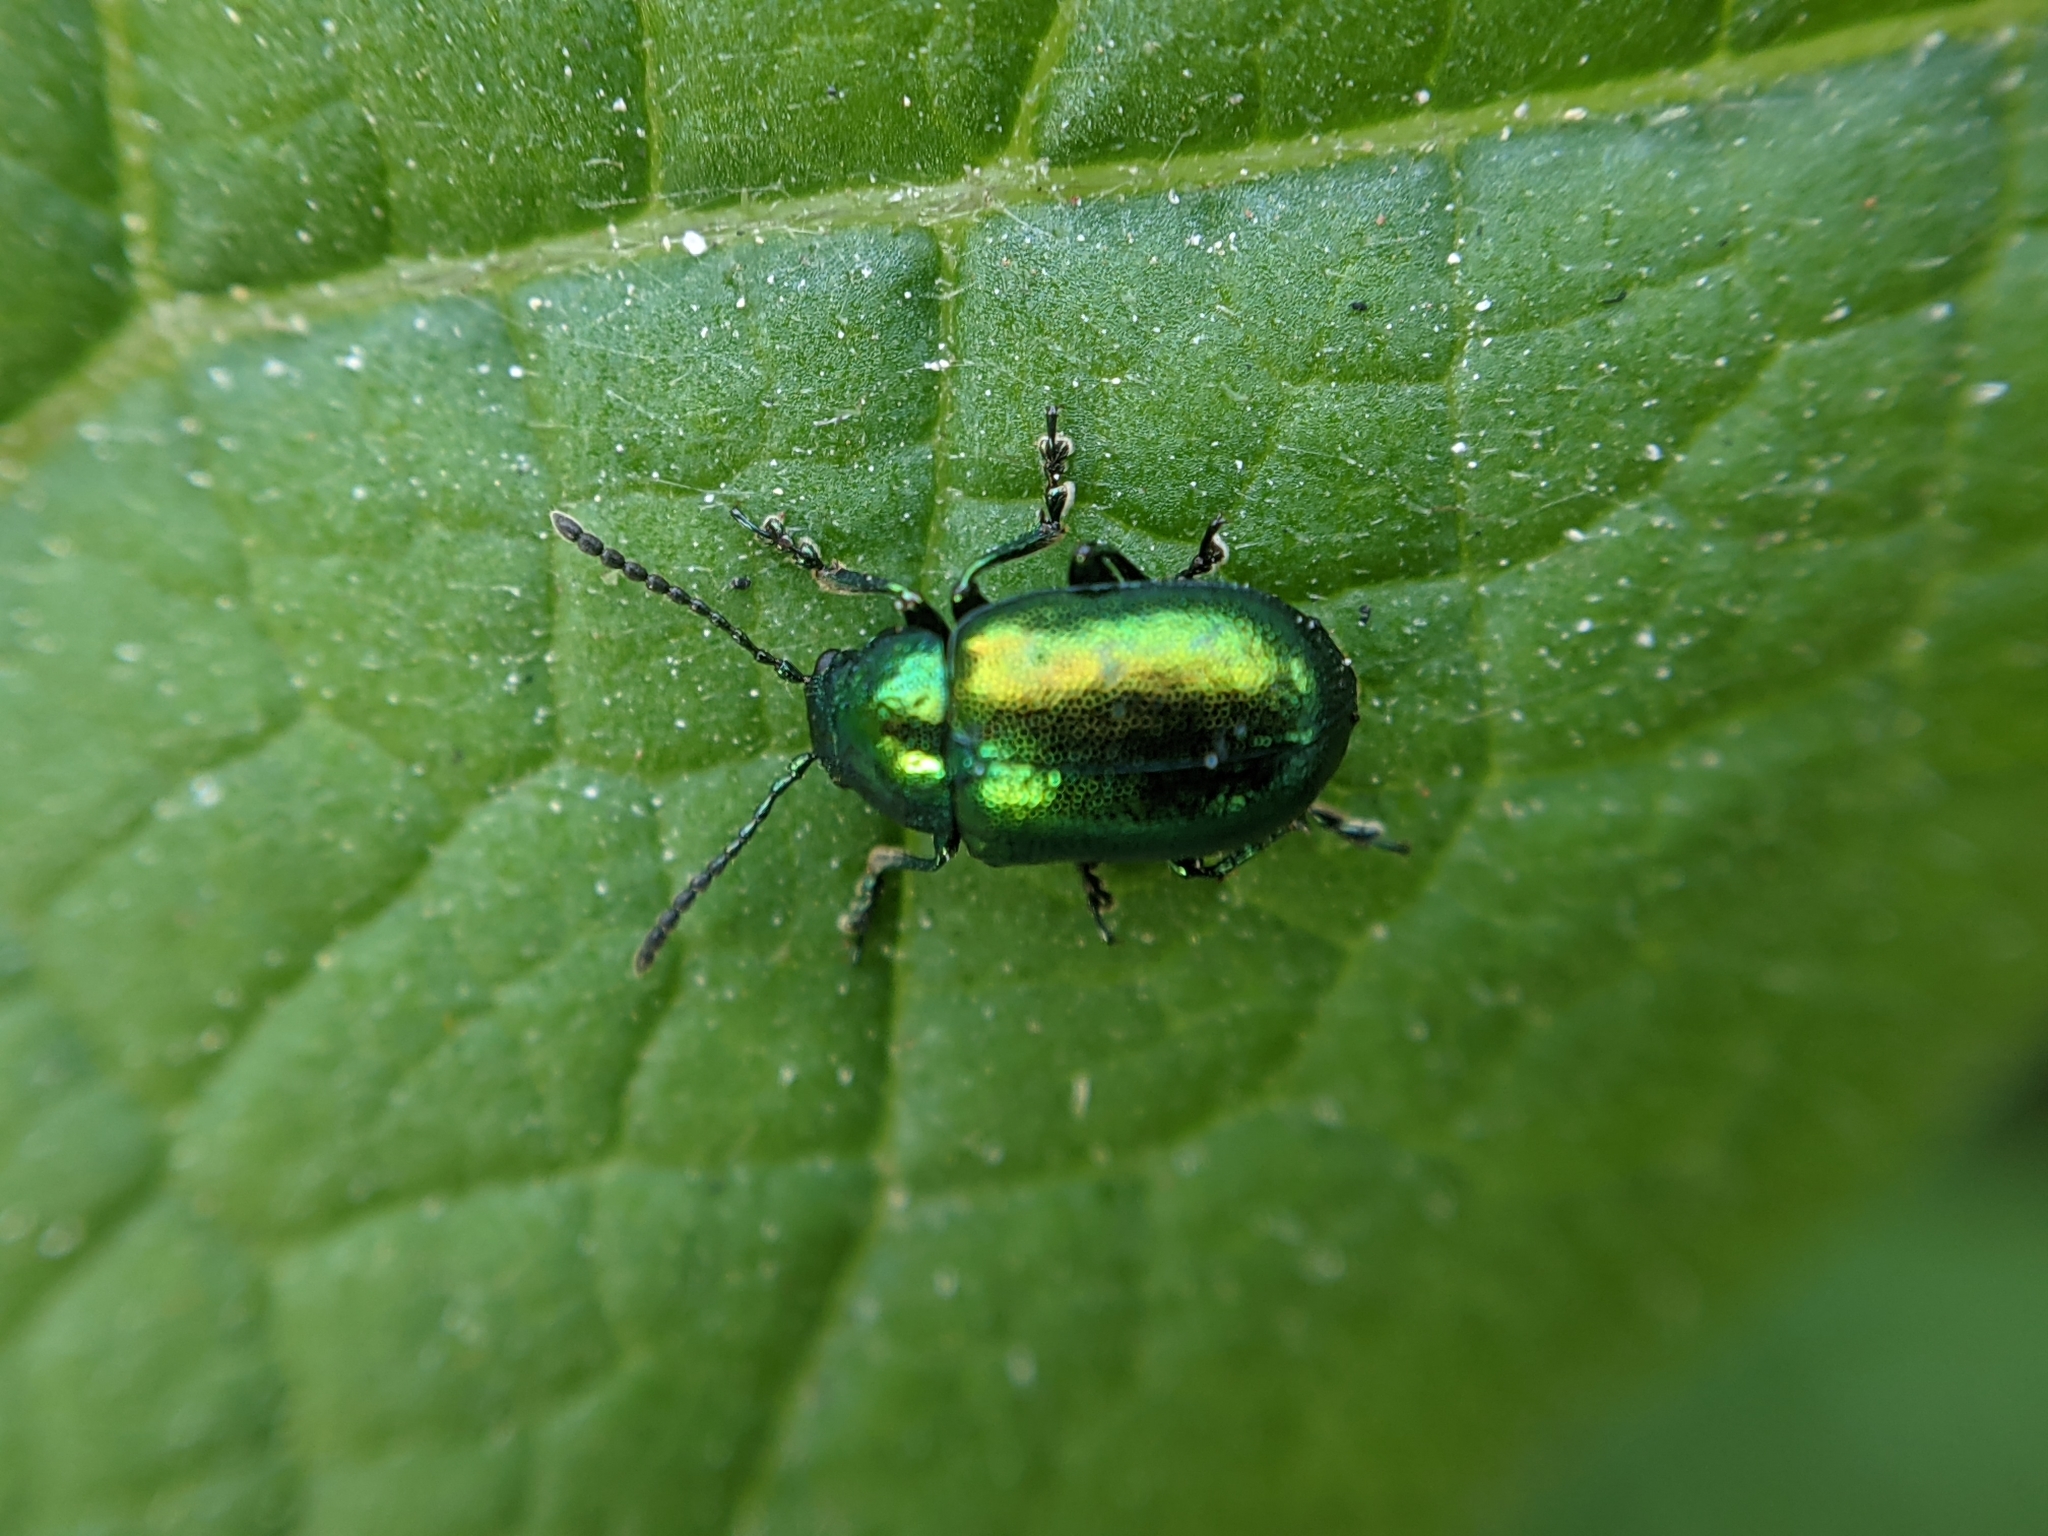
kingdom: Animalia
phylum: Arthropoda
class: Insecta
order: Coleoptera
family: Chrysomelidae
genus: Gastrophysa
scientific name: Gastrophysa viridula
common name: Green dock beetle
